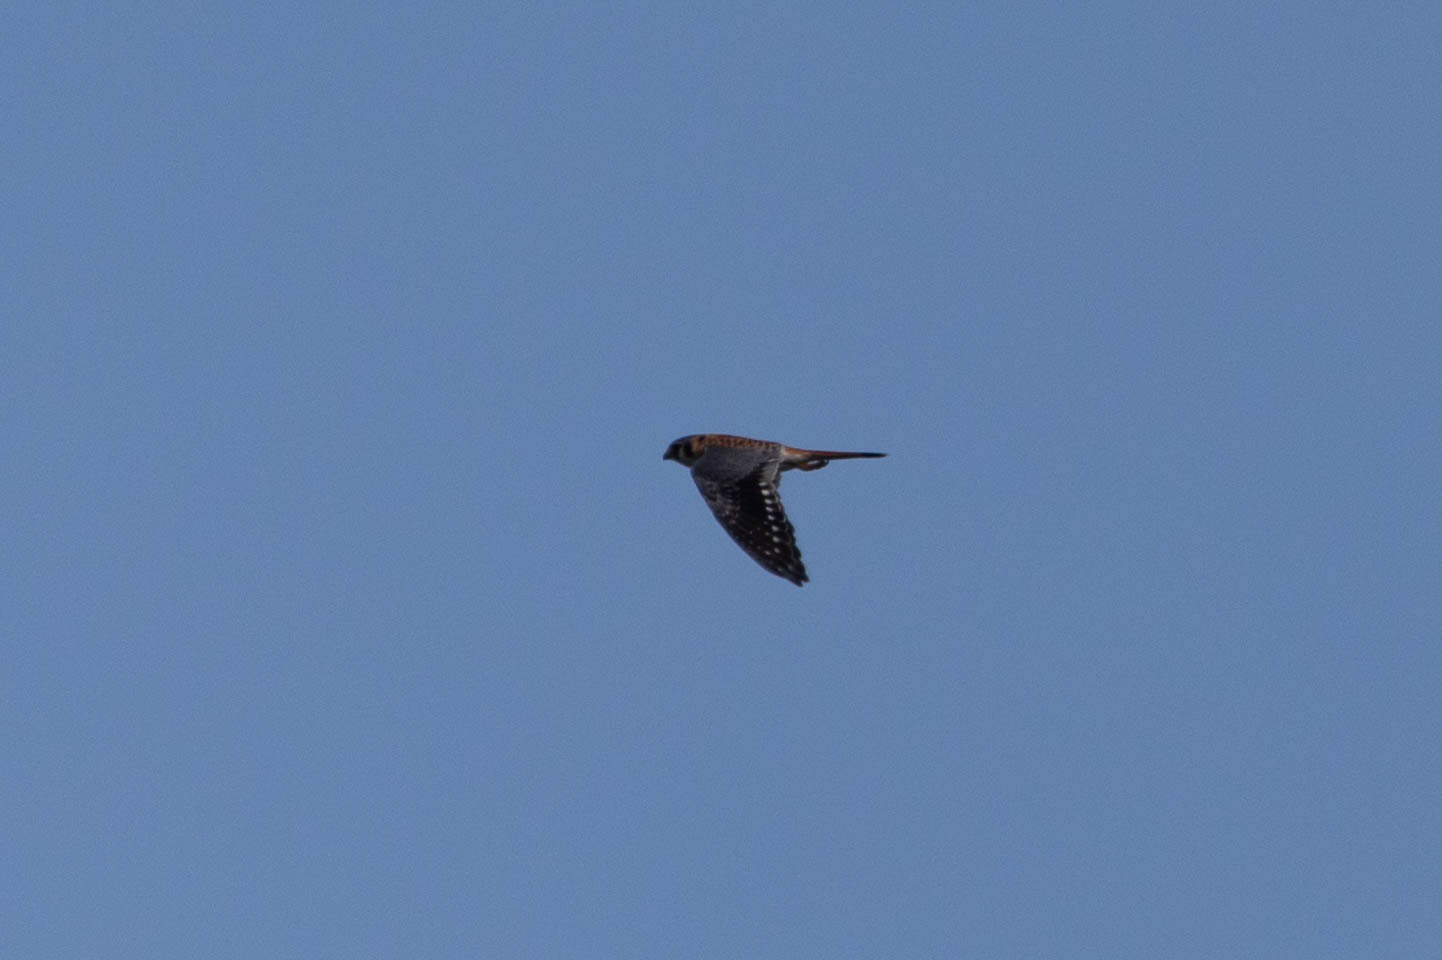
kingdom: Animalia
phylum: Chordata
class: Aves
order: Falconiformes
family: Falconidae
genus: Falco
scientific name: Falco sparverius
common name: American kestrel
